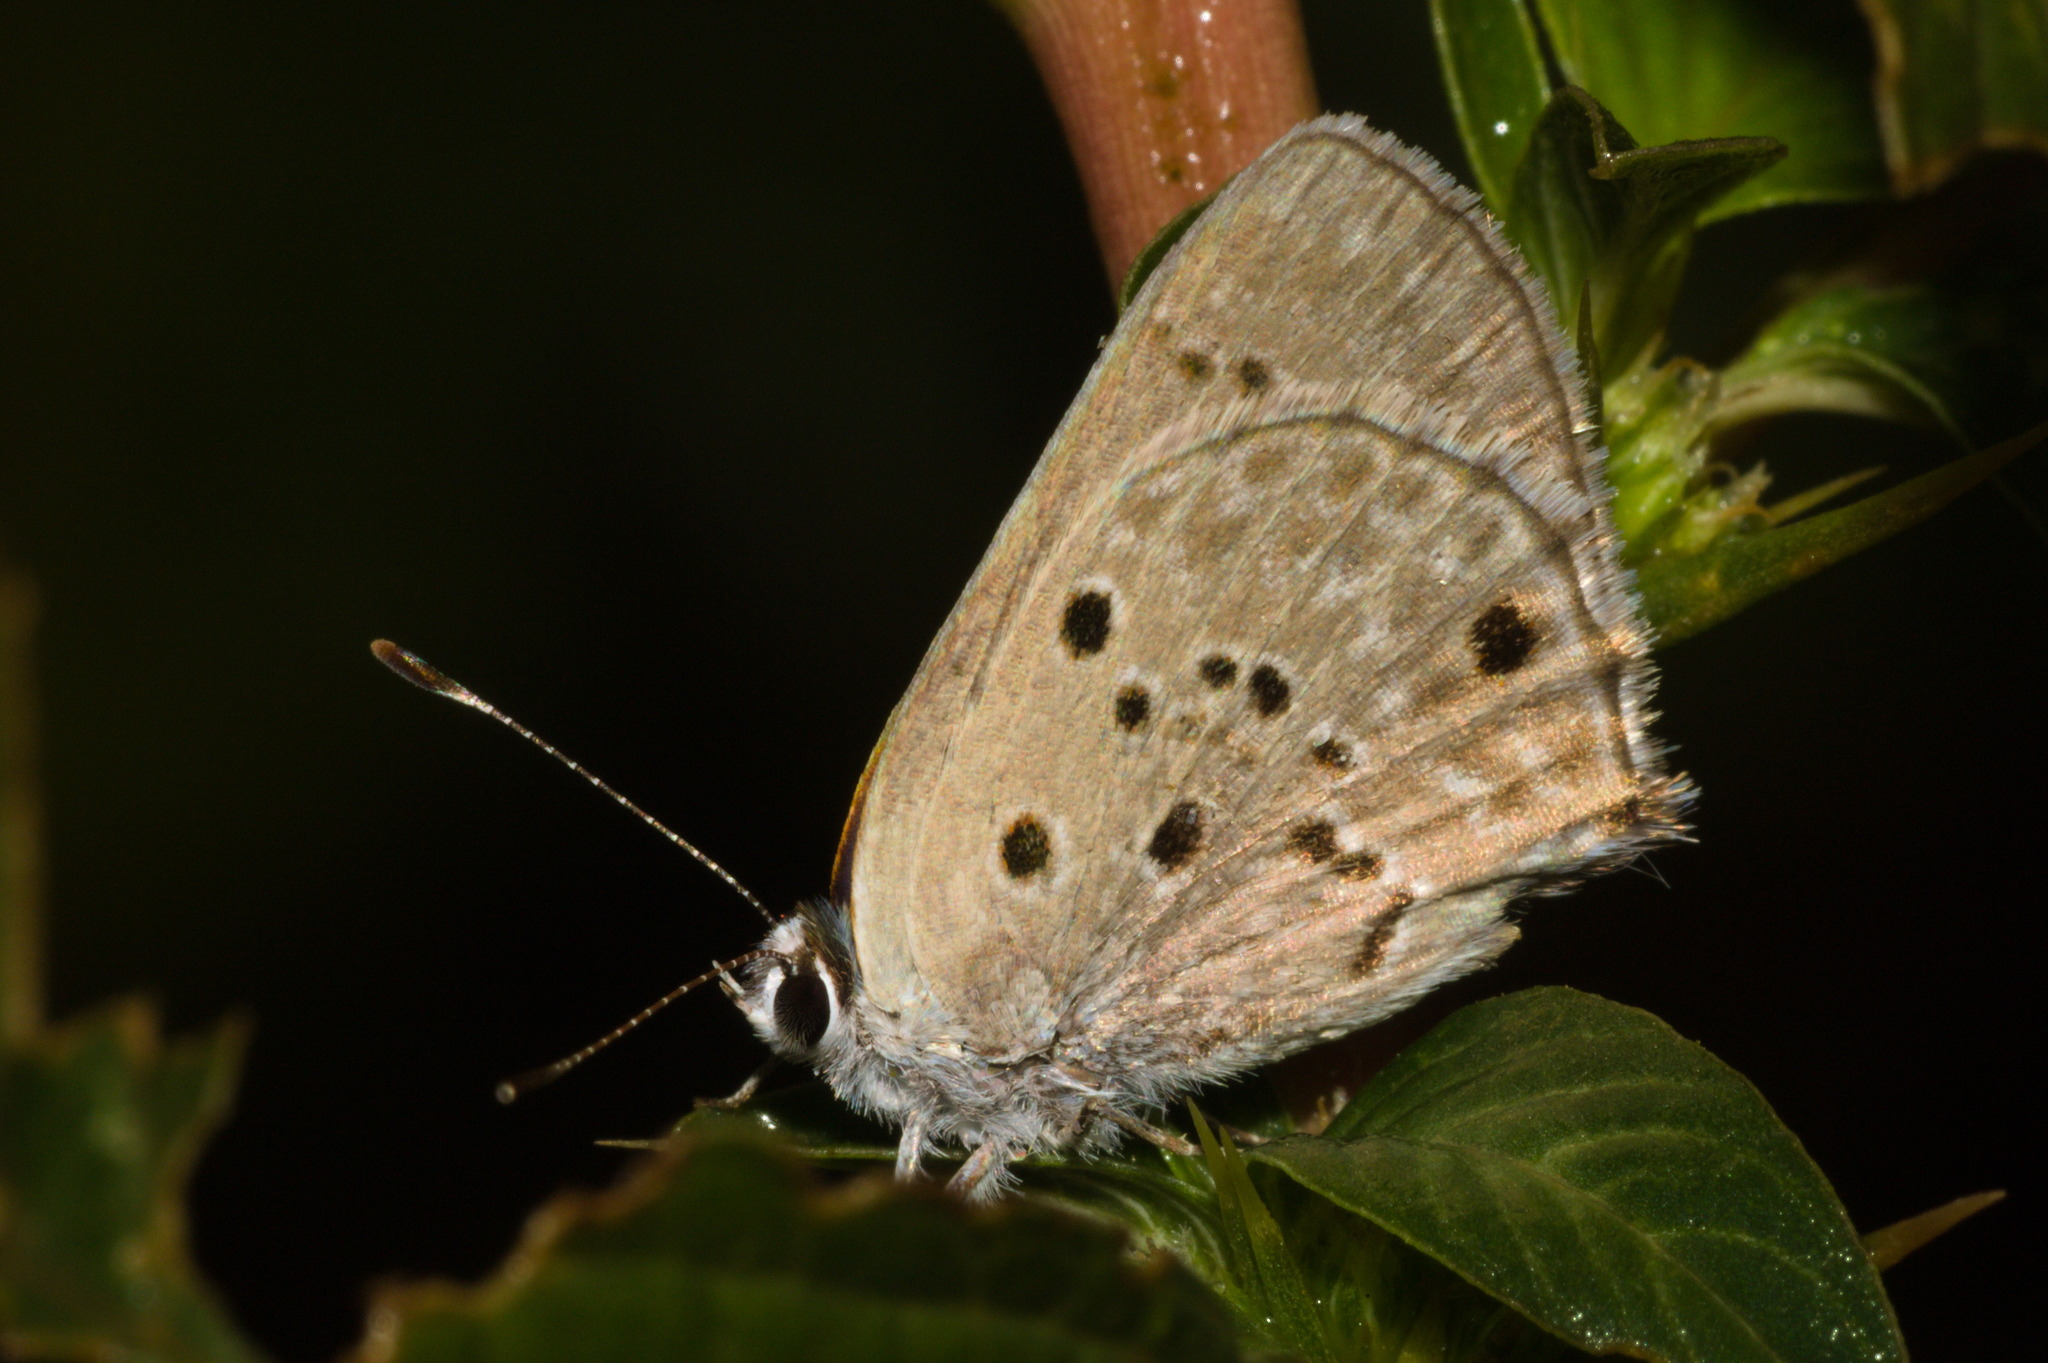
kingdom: Animalia
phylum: Arthropoda
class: Insecta
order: Lepidoptera
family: Lycaenidae
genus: Strymon
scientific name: Strymon bubastus
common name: Bubastes hairstreak
